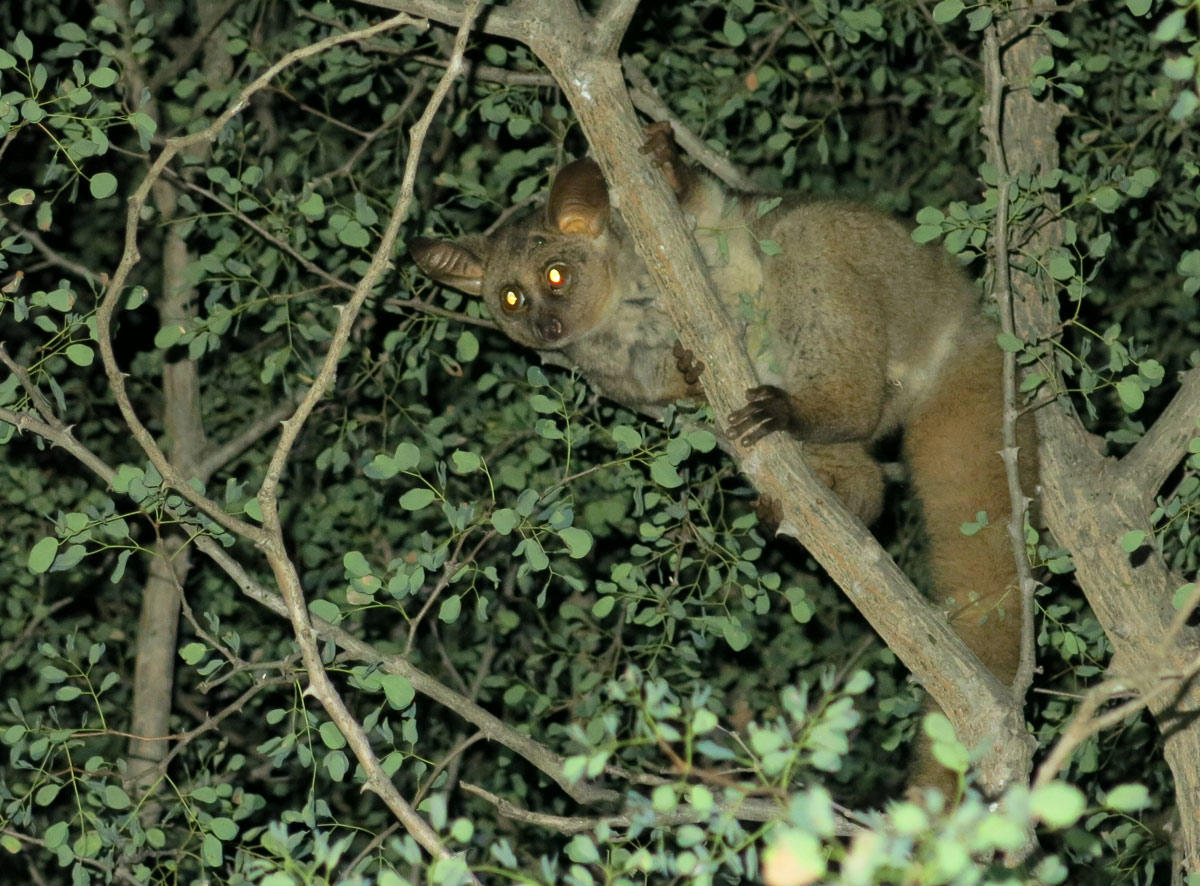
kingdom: Animalia
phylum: Chordata
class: Mammalia
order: Primates
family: Galagidae
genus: Otolemur
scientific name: Otolemur crassicaudatus
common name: Brown greater galago
